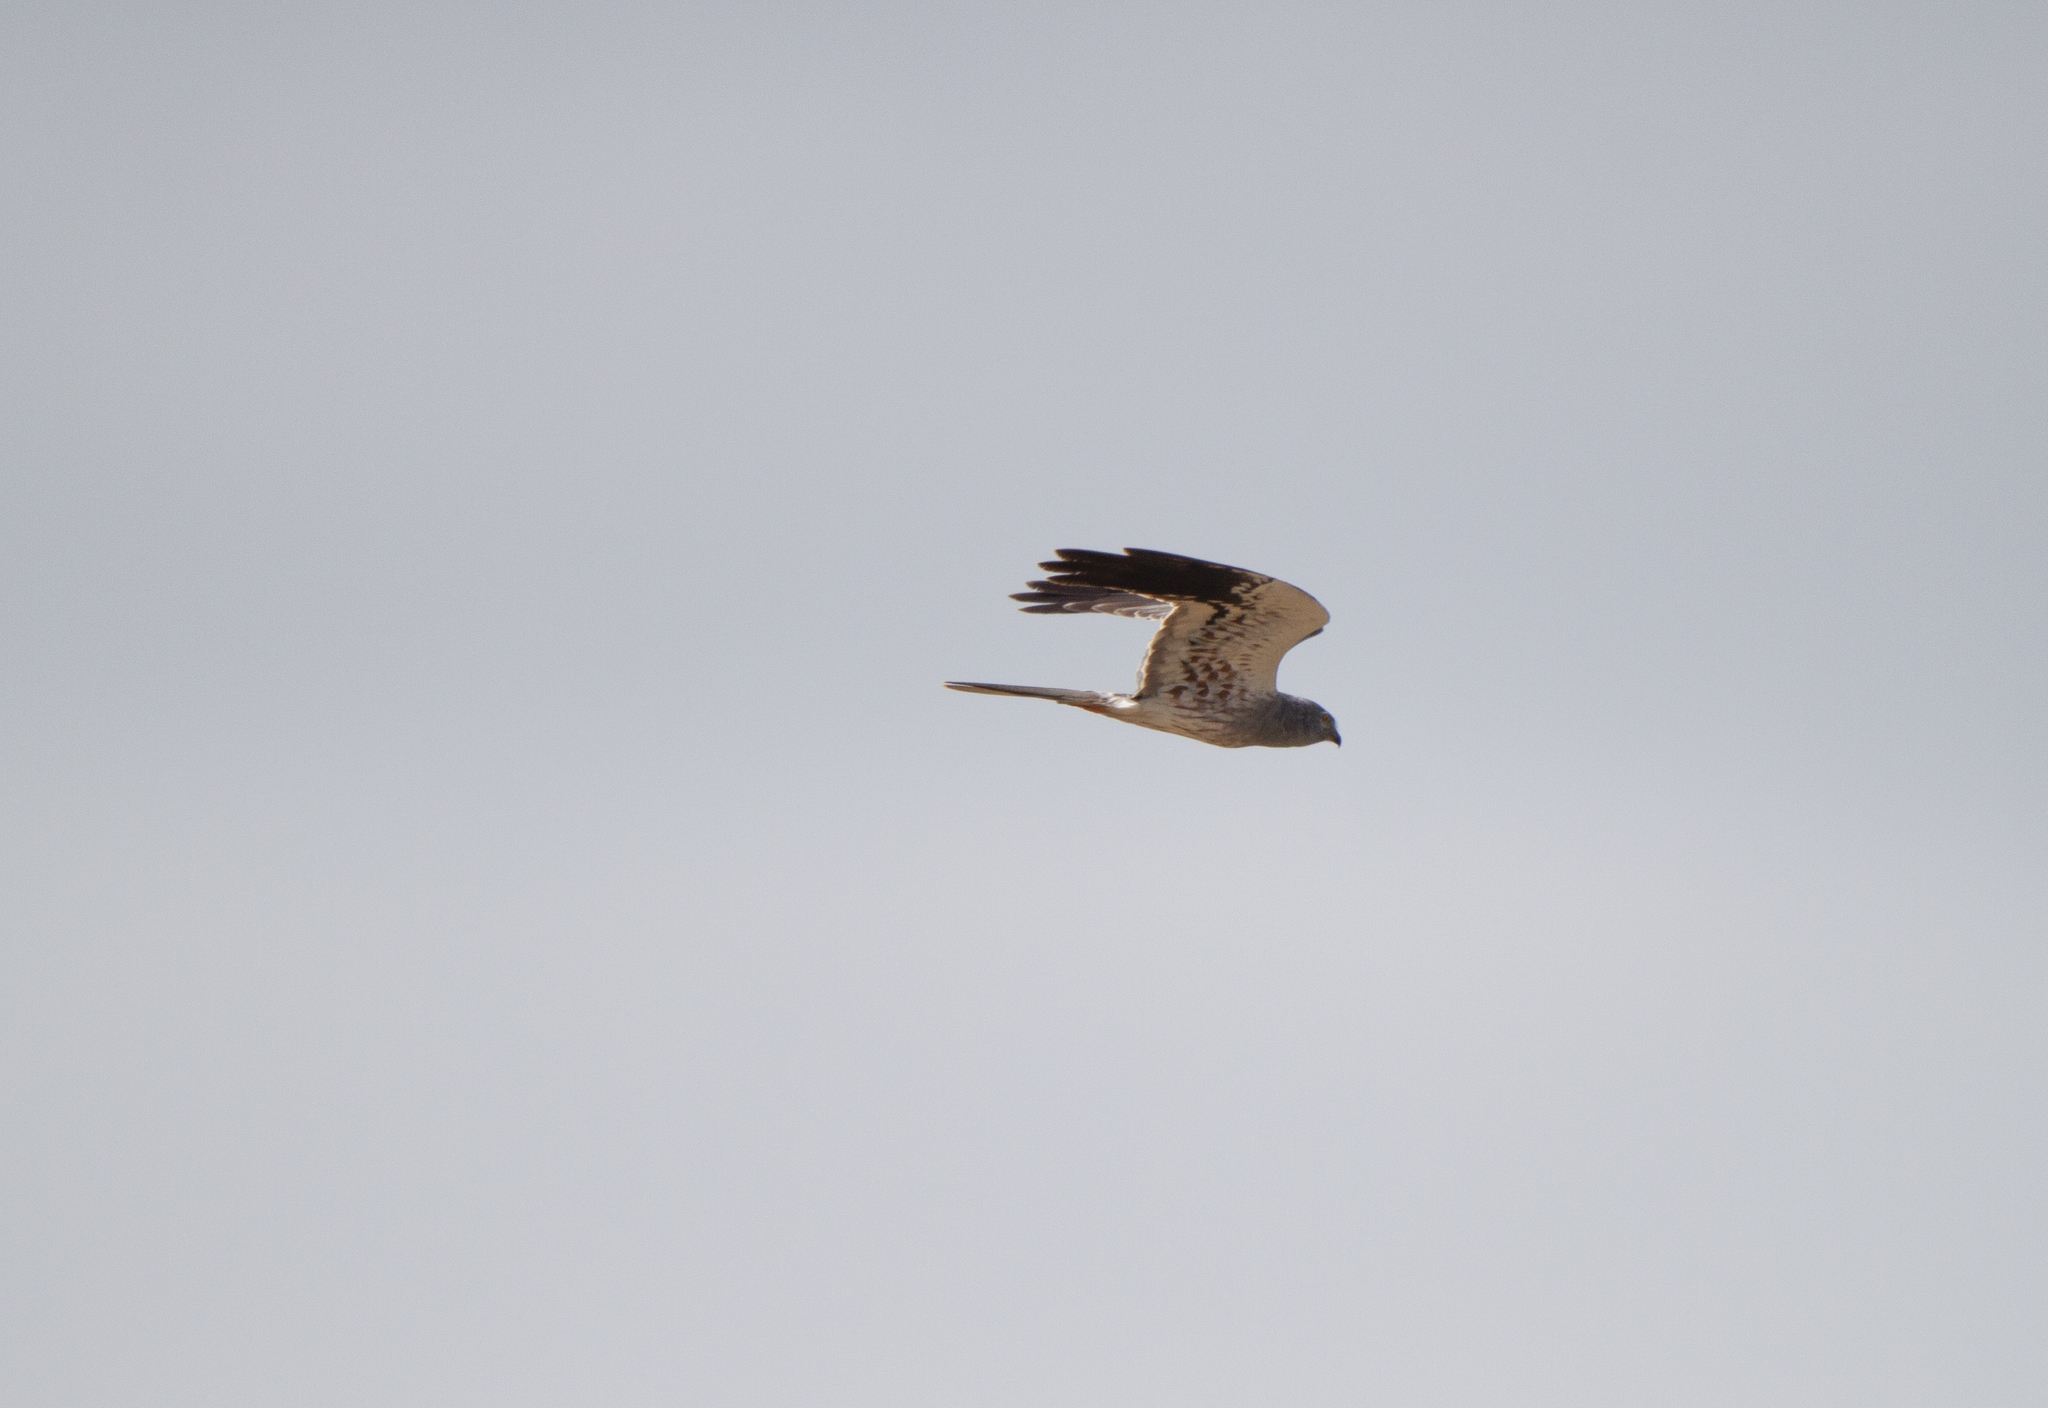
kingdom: Animalia
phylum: Chordata
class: Aves
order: Accipitriformes
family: Accipitridae
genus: Circus
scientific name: Circus pygargus
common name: Montagu's harrier
